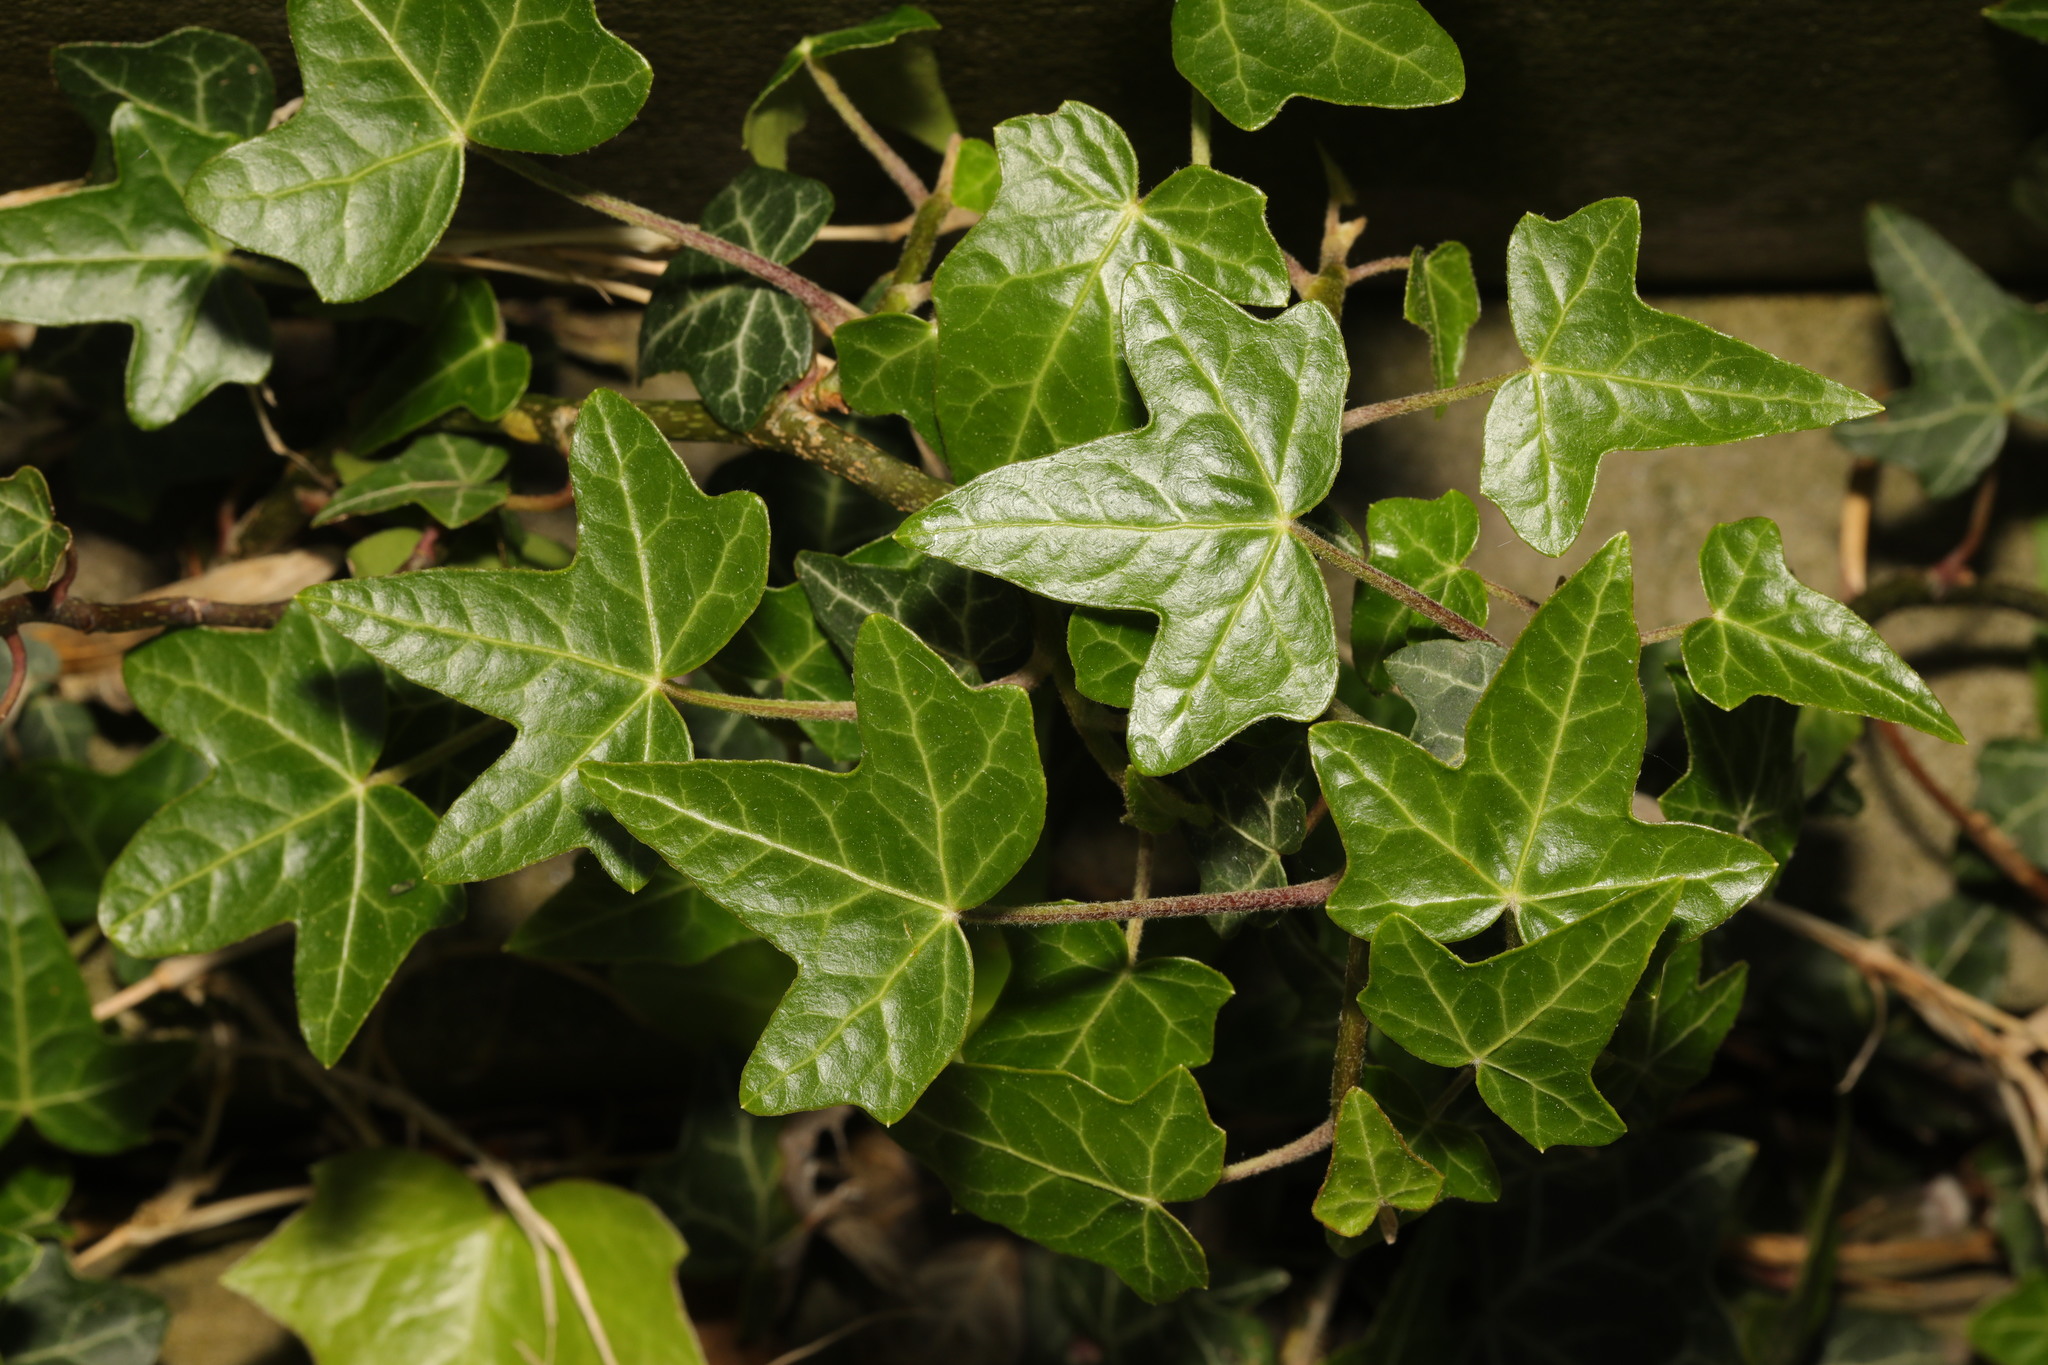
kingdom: Plantae
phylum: Tracheophyta
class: Magnoliopsida
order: Apiales
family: Araliaceae
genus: Hedera
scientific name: Hedera helix
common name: Ivy
